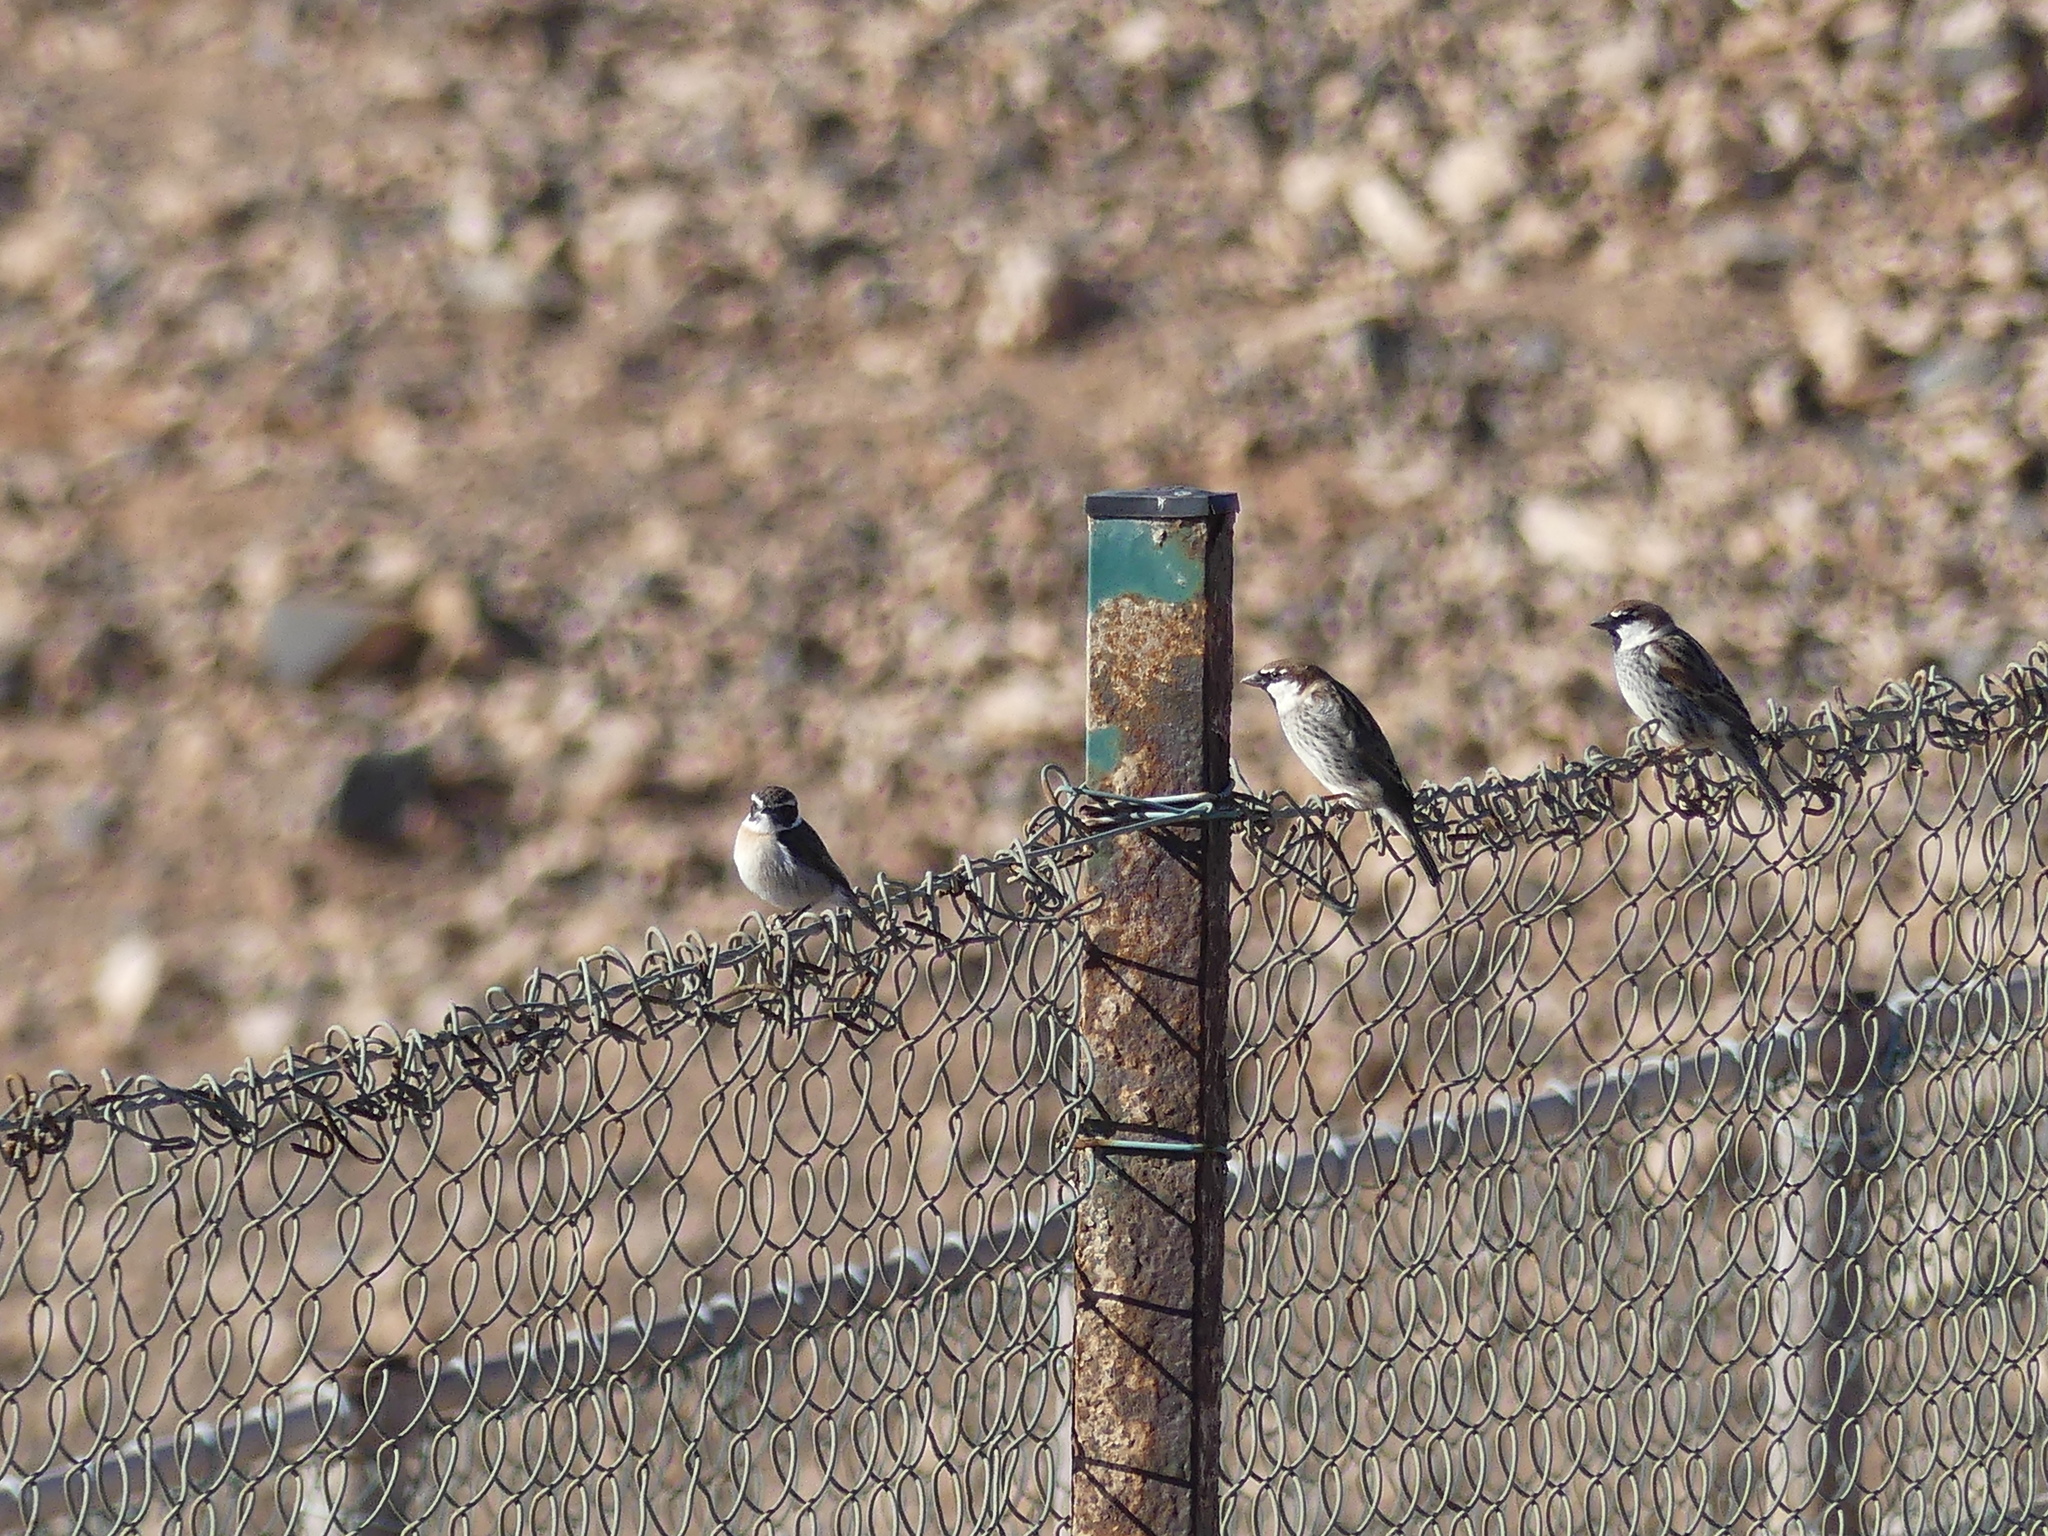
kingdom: Animalia
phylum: Chordata
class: Aves
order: Passeriformes
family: Passeridae
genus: Passer
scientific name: Passer hispaniolensis
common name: Spanish sparrow
